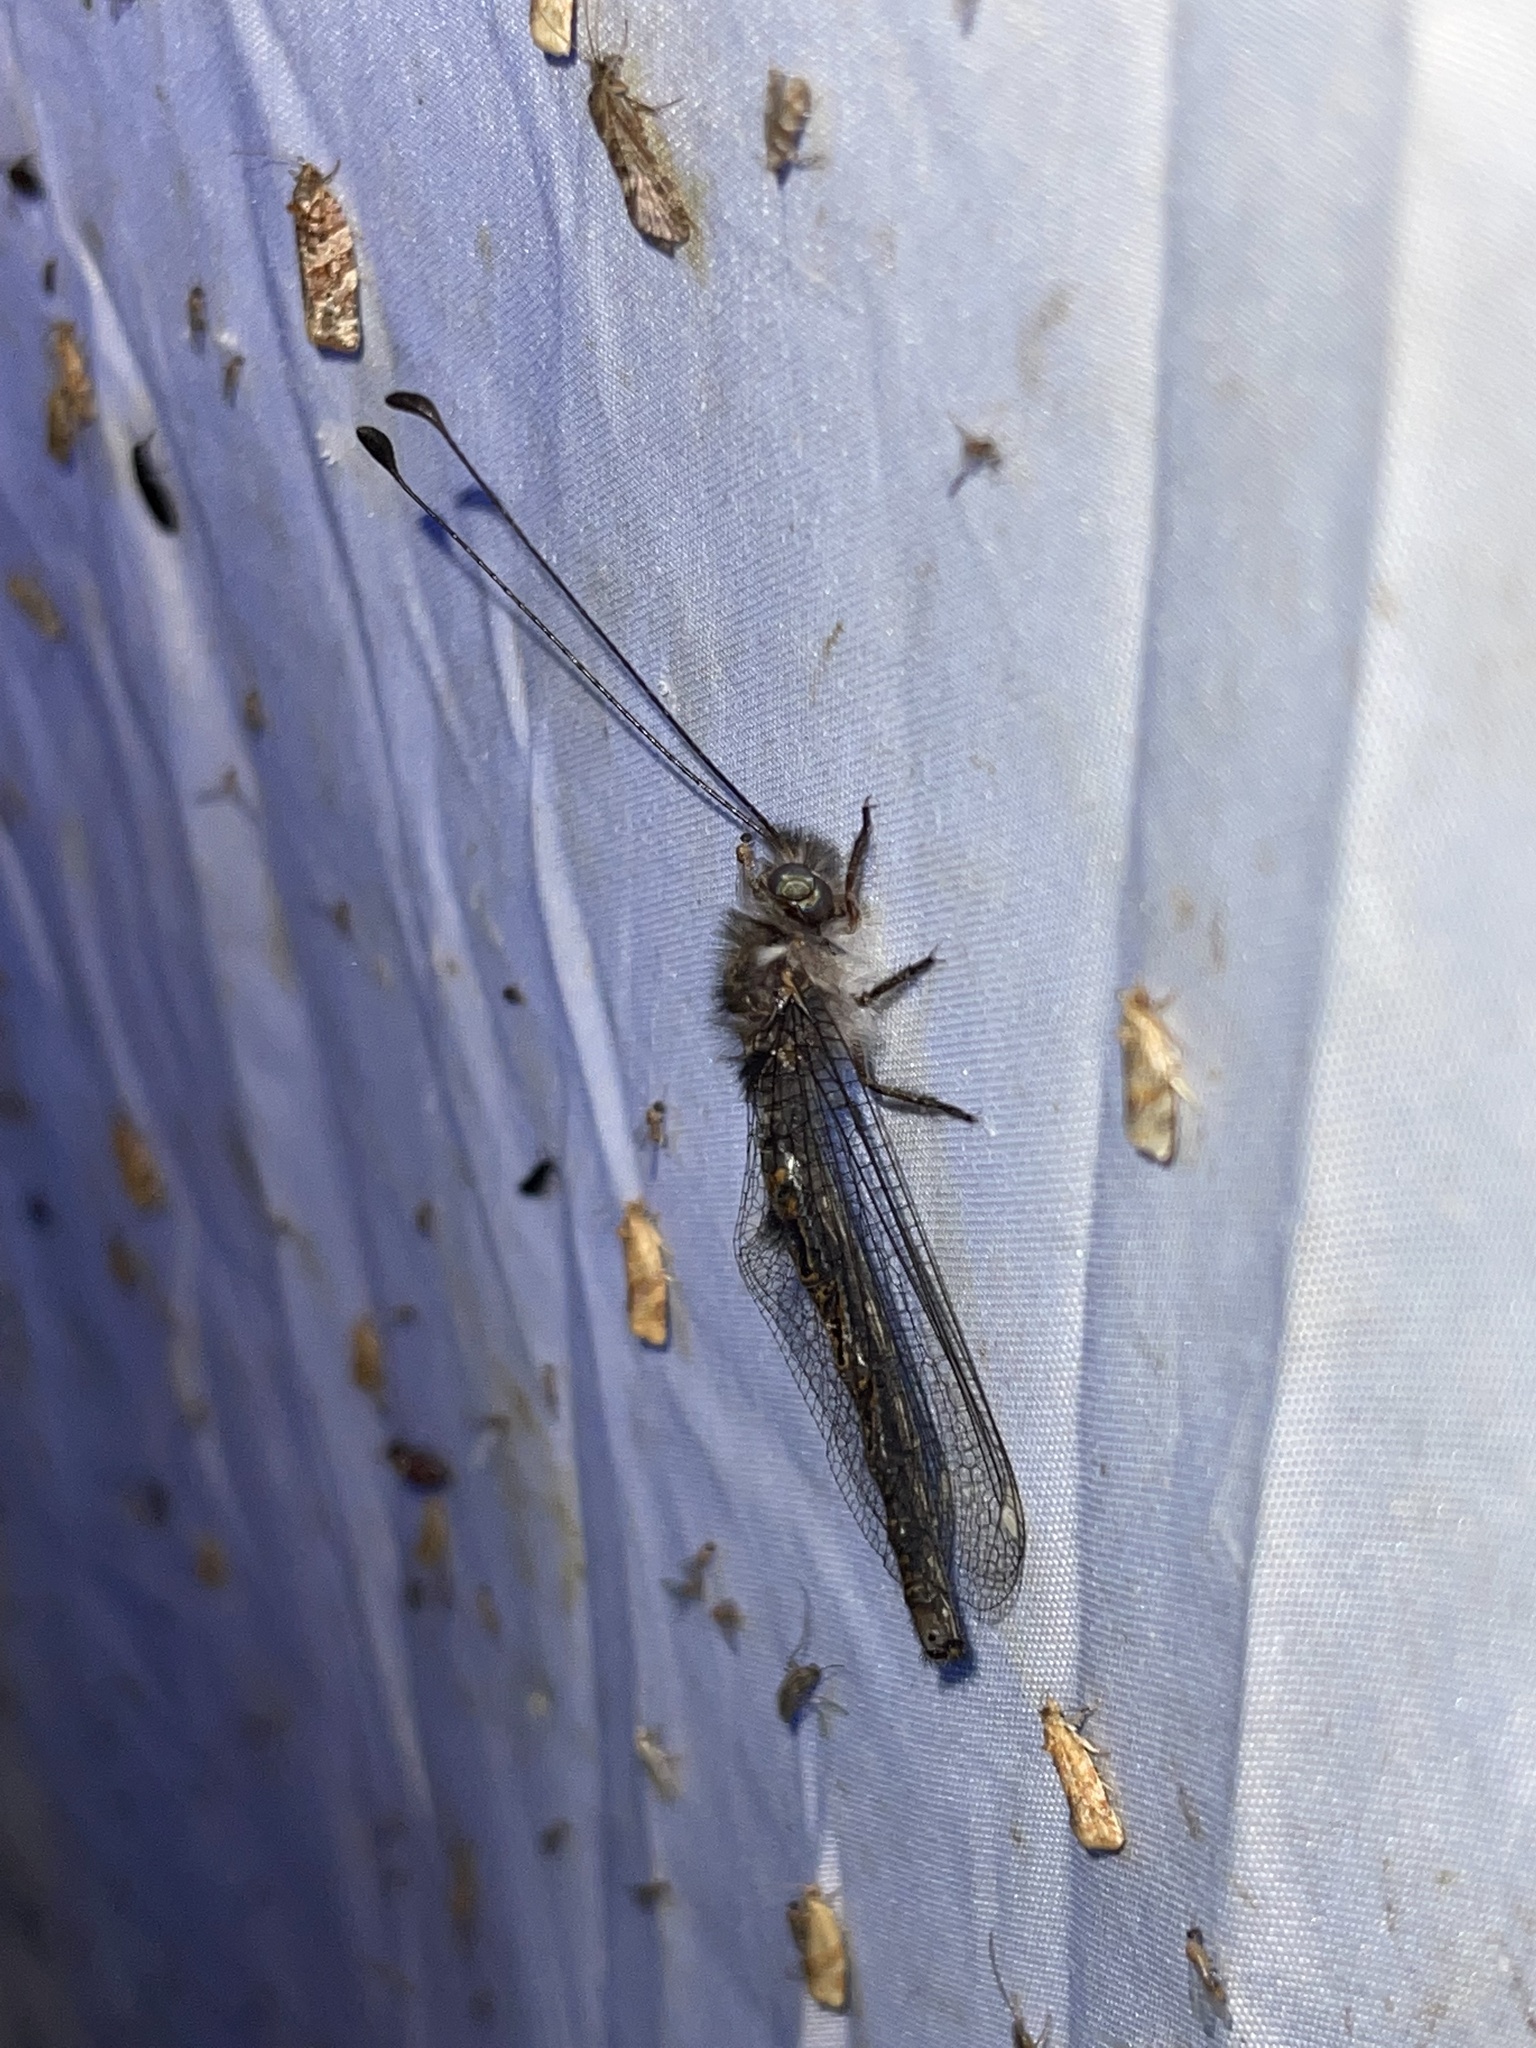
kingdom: Animalia
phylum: Arthropoda
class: Insecta
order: Neuroptera
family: Ascalaphidae
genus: Ululodes
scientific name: Ululodes quadripunctatus
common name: Four-spotted owlfly
